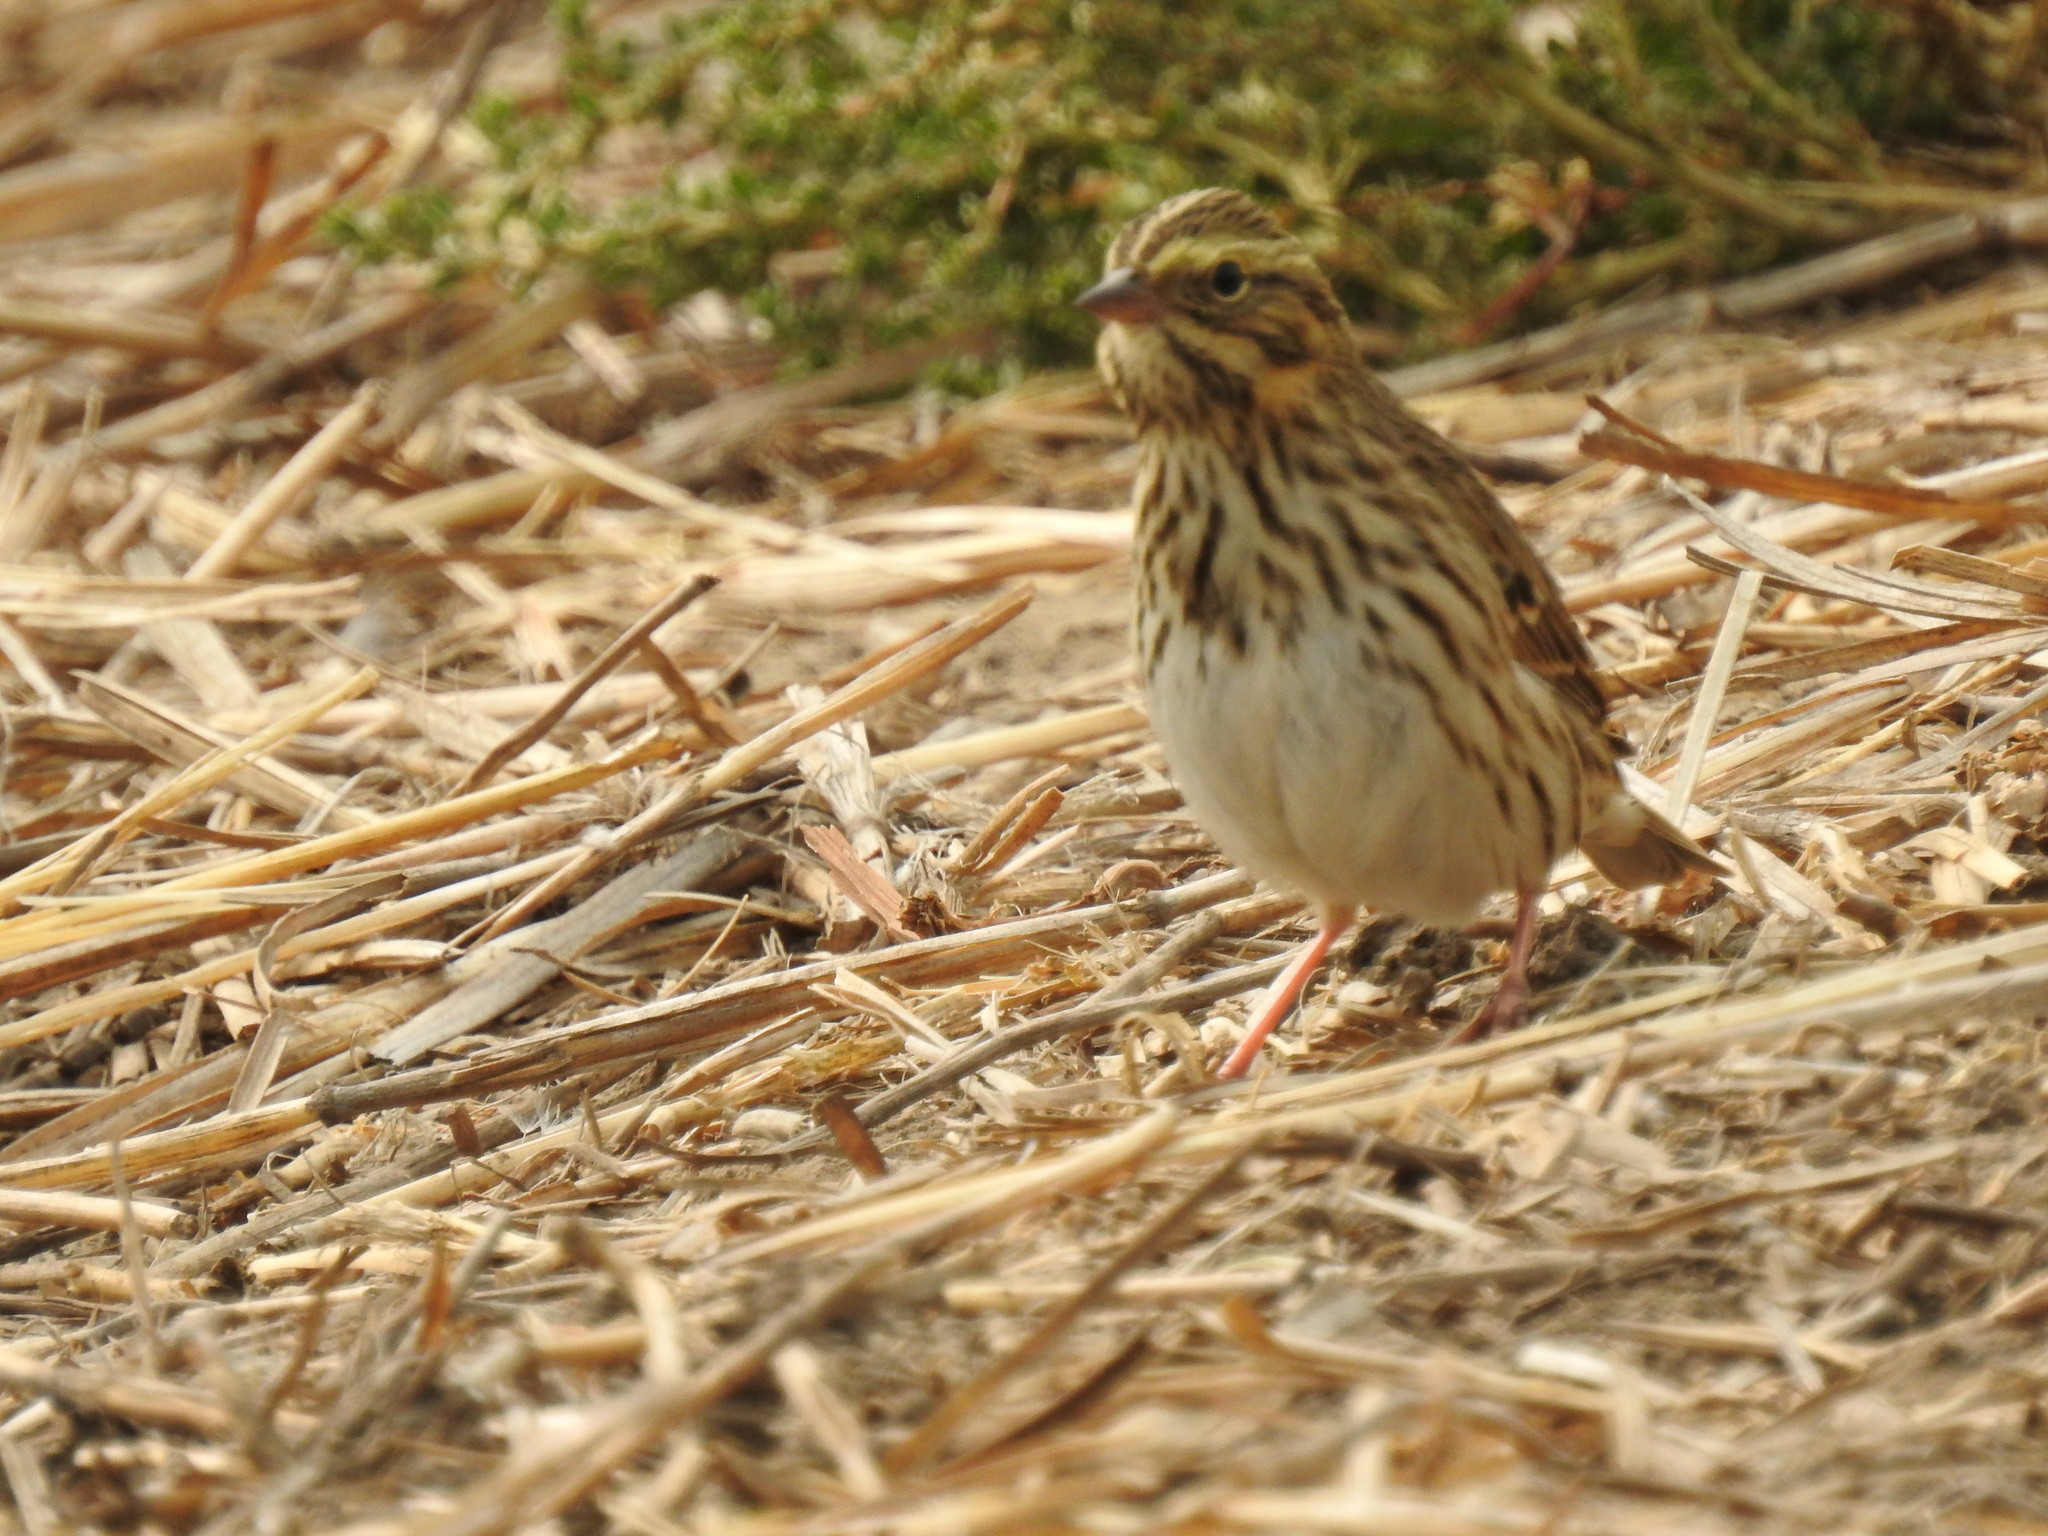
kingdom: Animalia
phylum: Chordata
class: Aves
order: Passeriformes
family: Passerellidae
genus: Passerculus
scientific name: Passerculus sandwichensis
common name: Savannah sparrow
